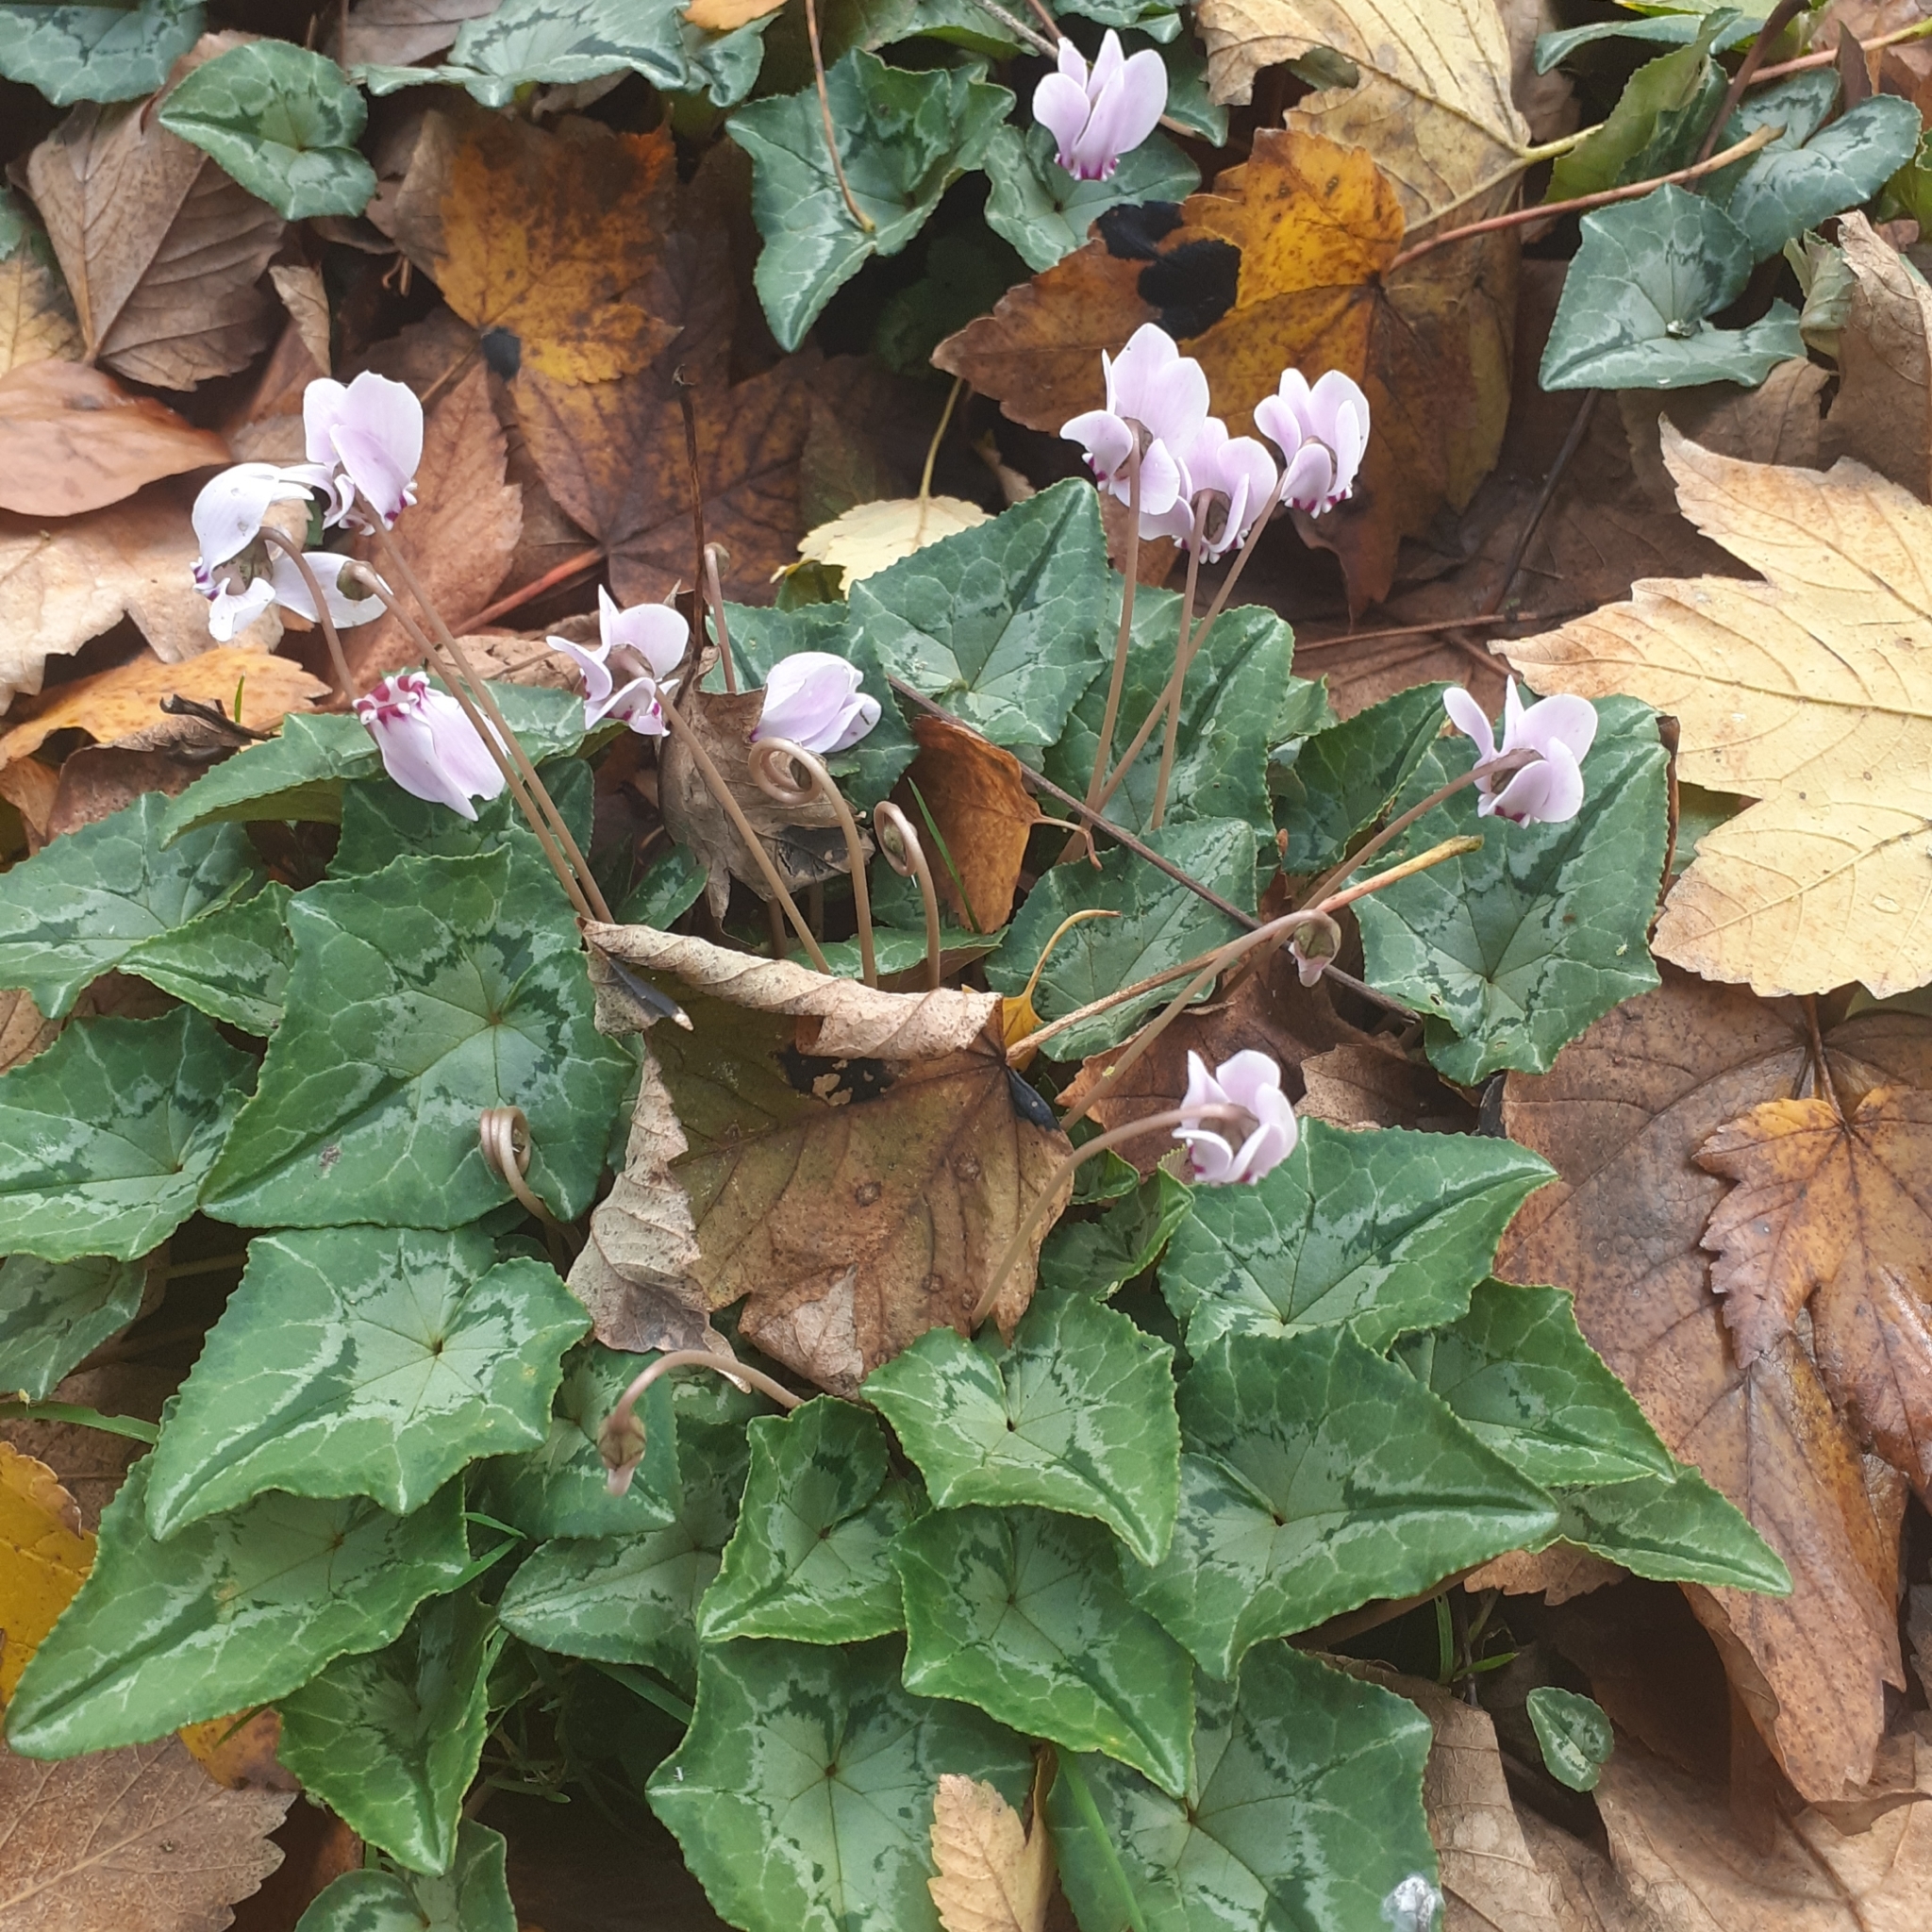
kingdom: Plantae
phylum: Tracheophyta
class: Magnoliopsida
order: Ericales
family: Primulaceae
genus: Cyclamen
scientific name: Cyclamen hederifolium
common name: Sowbread
